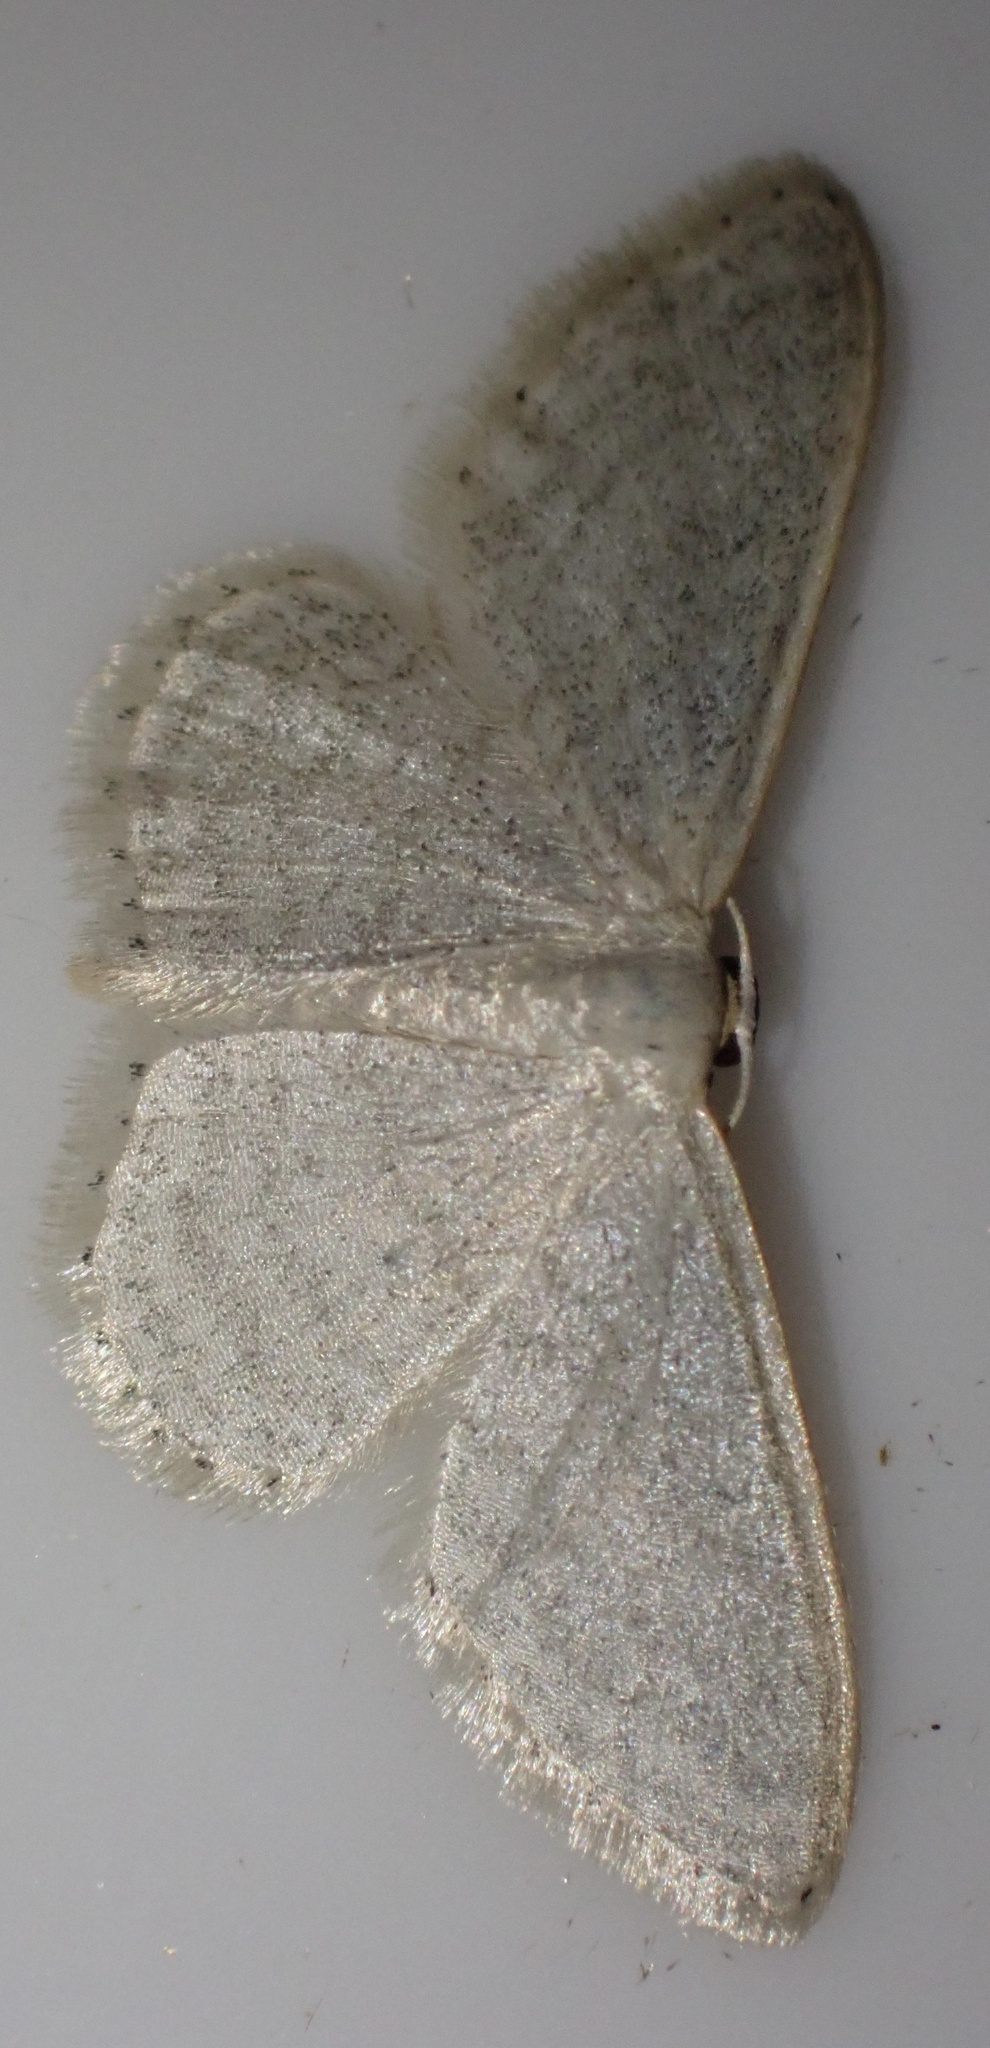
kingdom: Animalia
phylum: Arthropoda
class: Insecta
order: Lepidoptera
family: Geometridae
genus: Idaea
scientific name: Idaea subsericeata
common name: Satin wave
